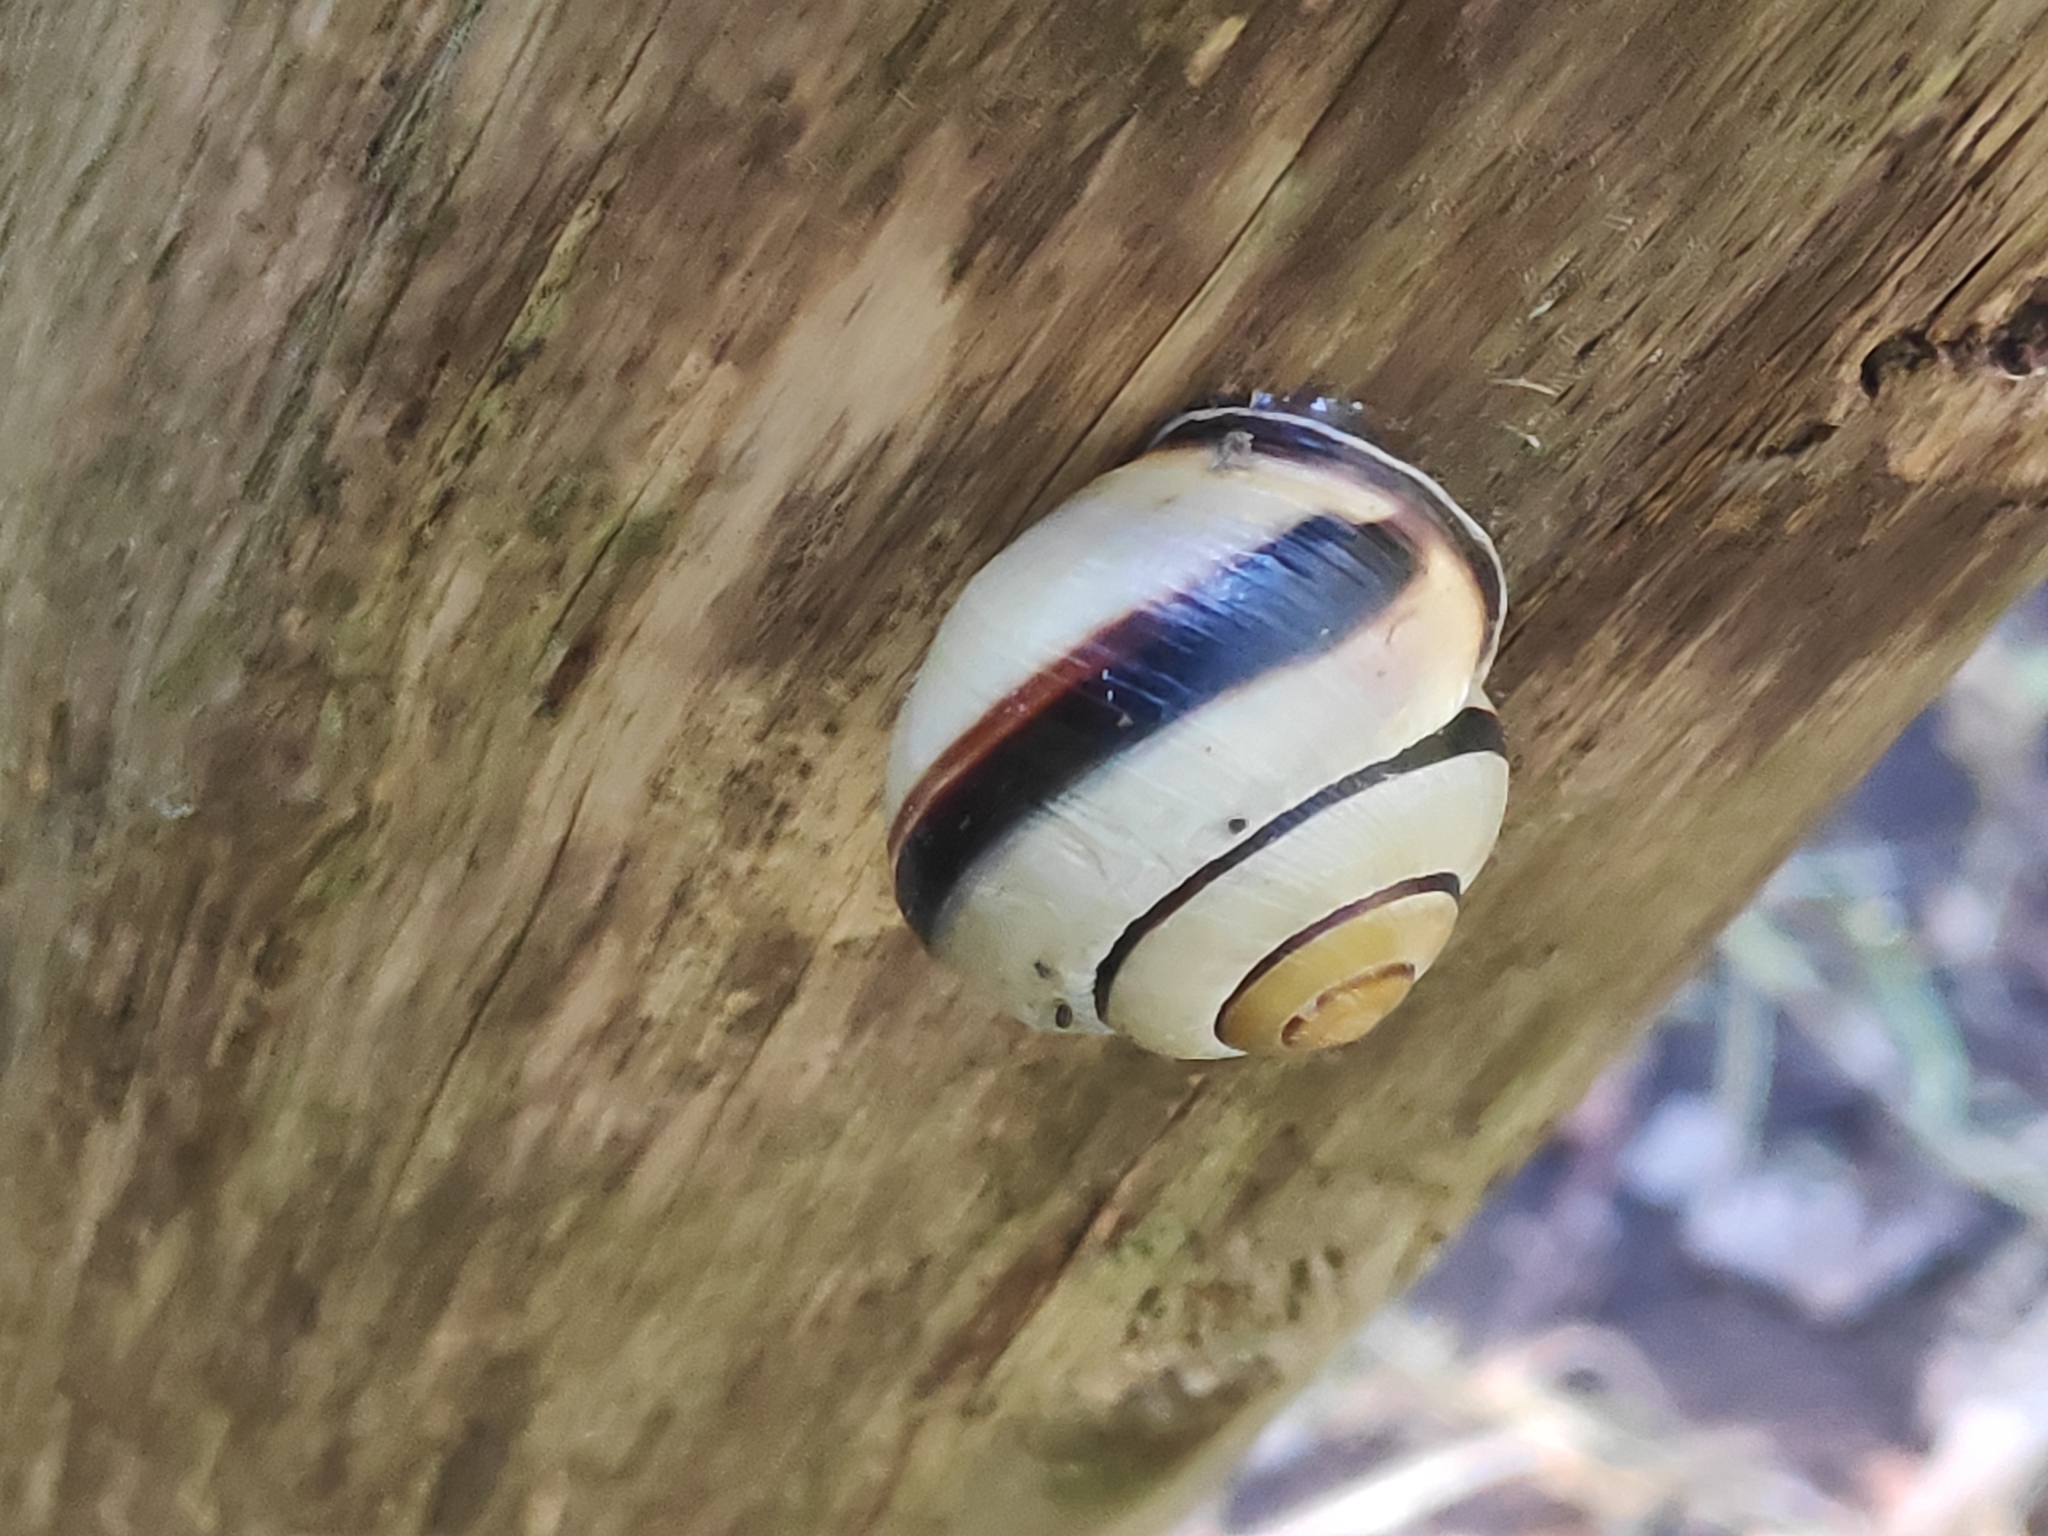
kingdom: Animalia
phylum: Mollusca
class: Gastropoda
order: Stylommatophora
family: Helicidae
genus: Cepaea
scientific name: Cepaea nemoralis
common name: Grovesnail
